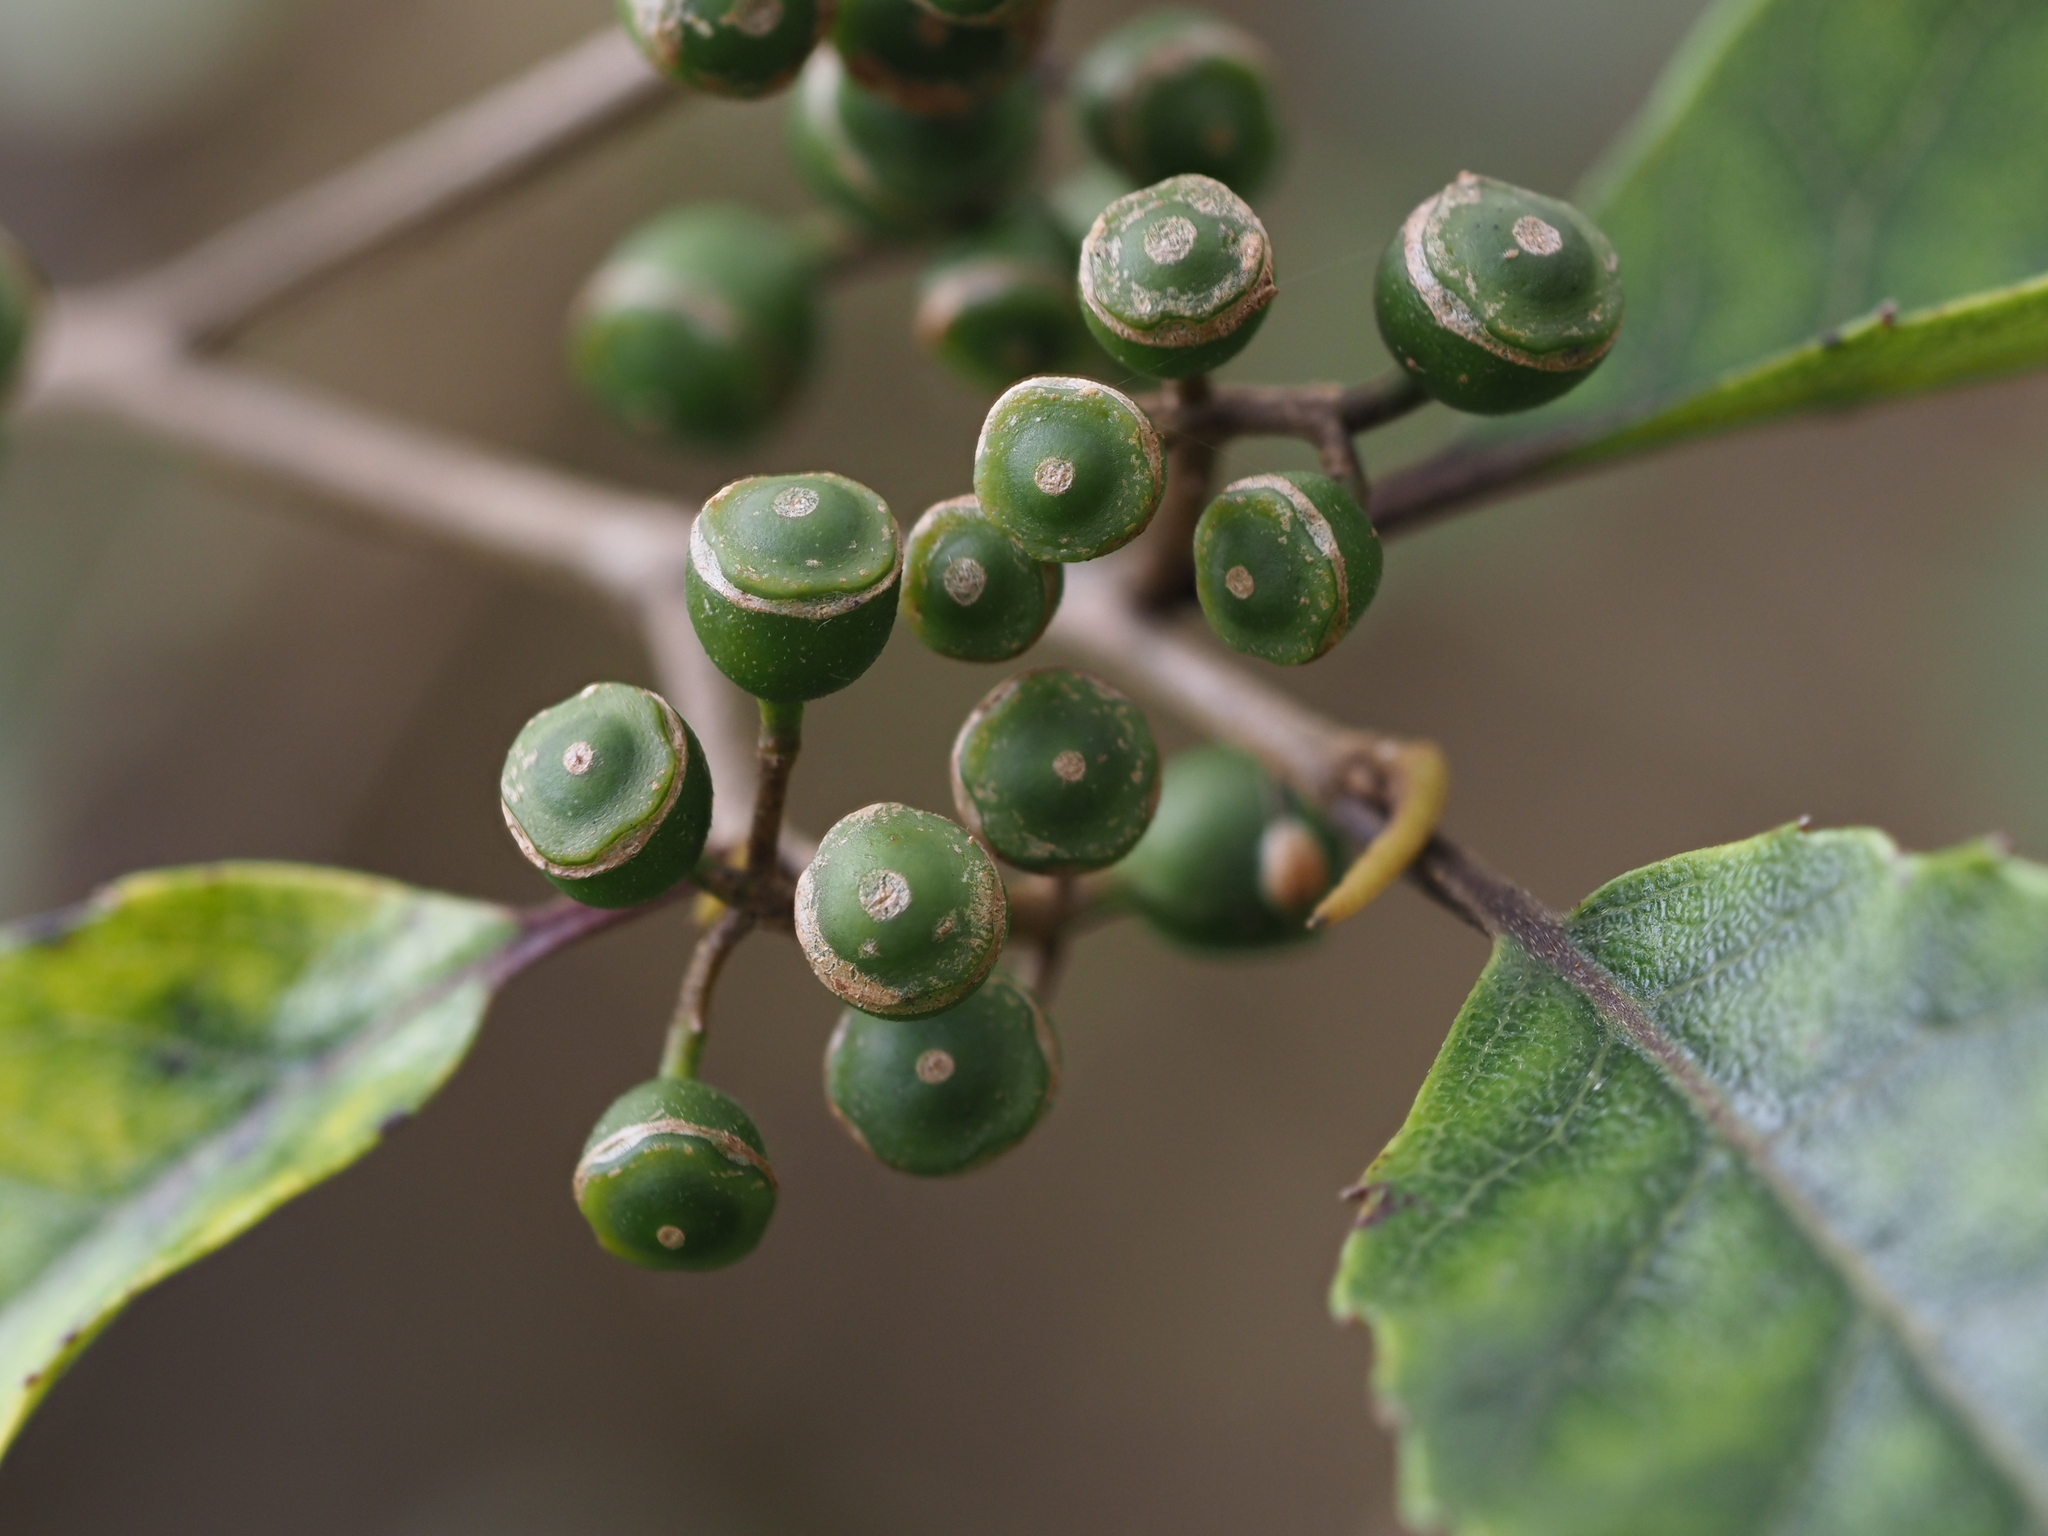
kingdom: Plantae
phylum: Tracheophyta
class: Magnoliopsida
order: Asterales
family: Rousseaceae
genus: Carpodetus
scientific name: Carpodetus serratus
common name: White mapau
